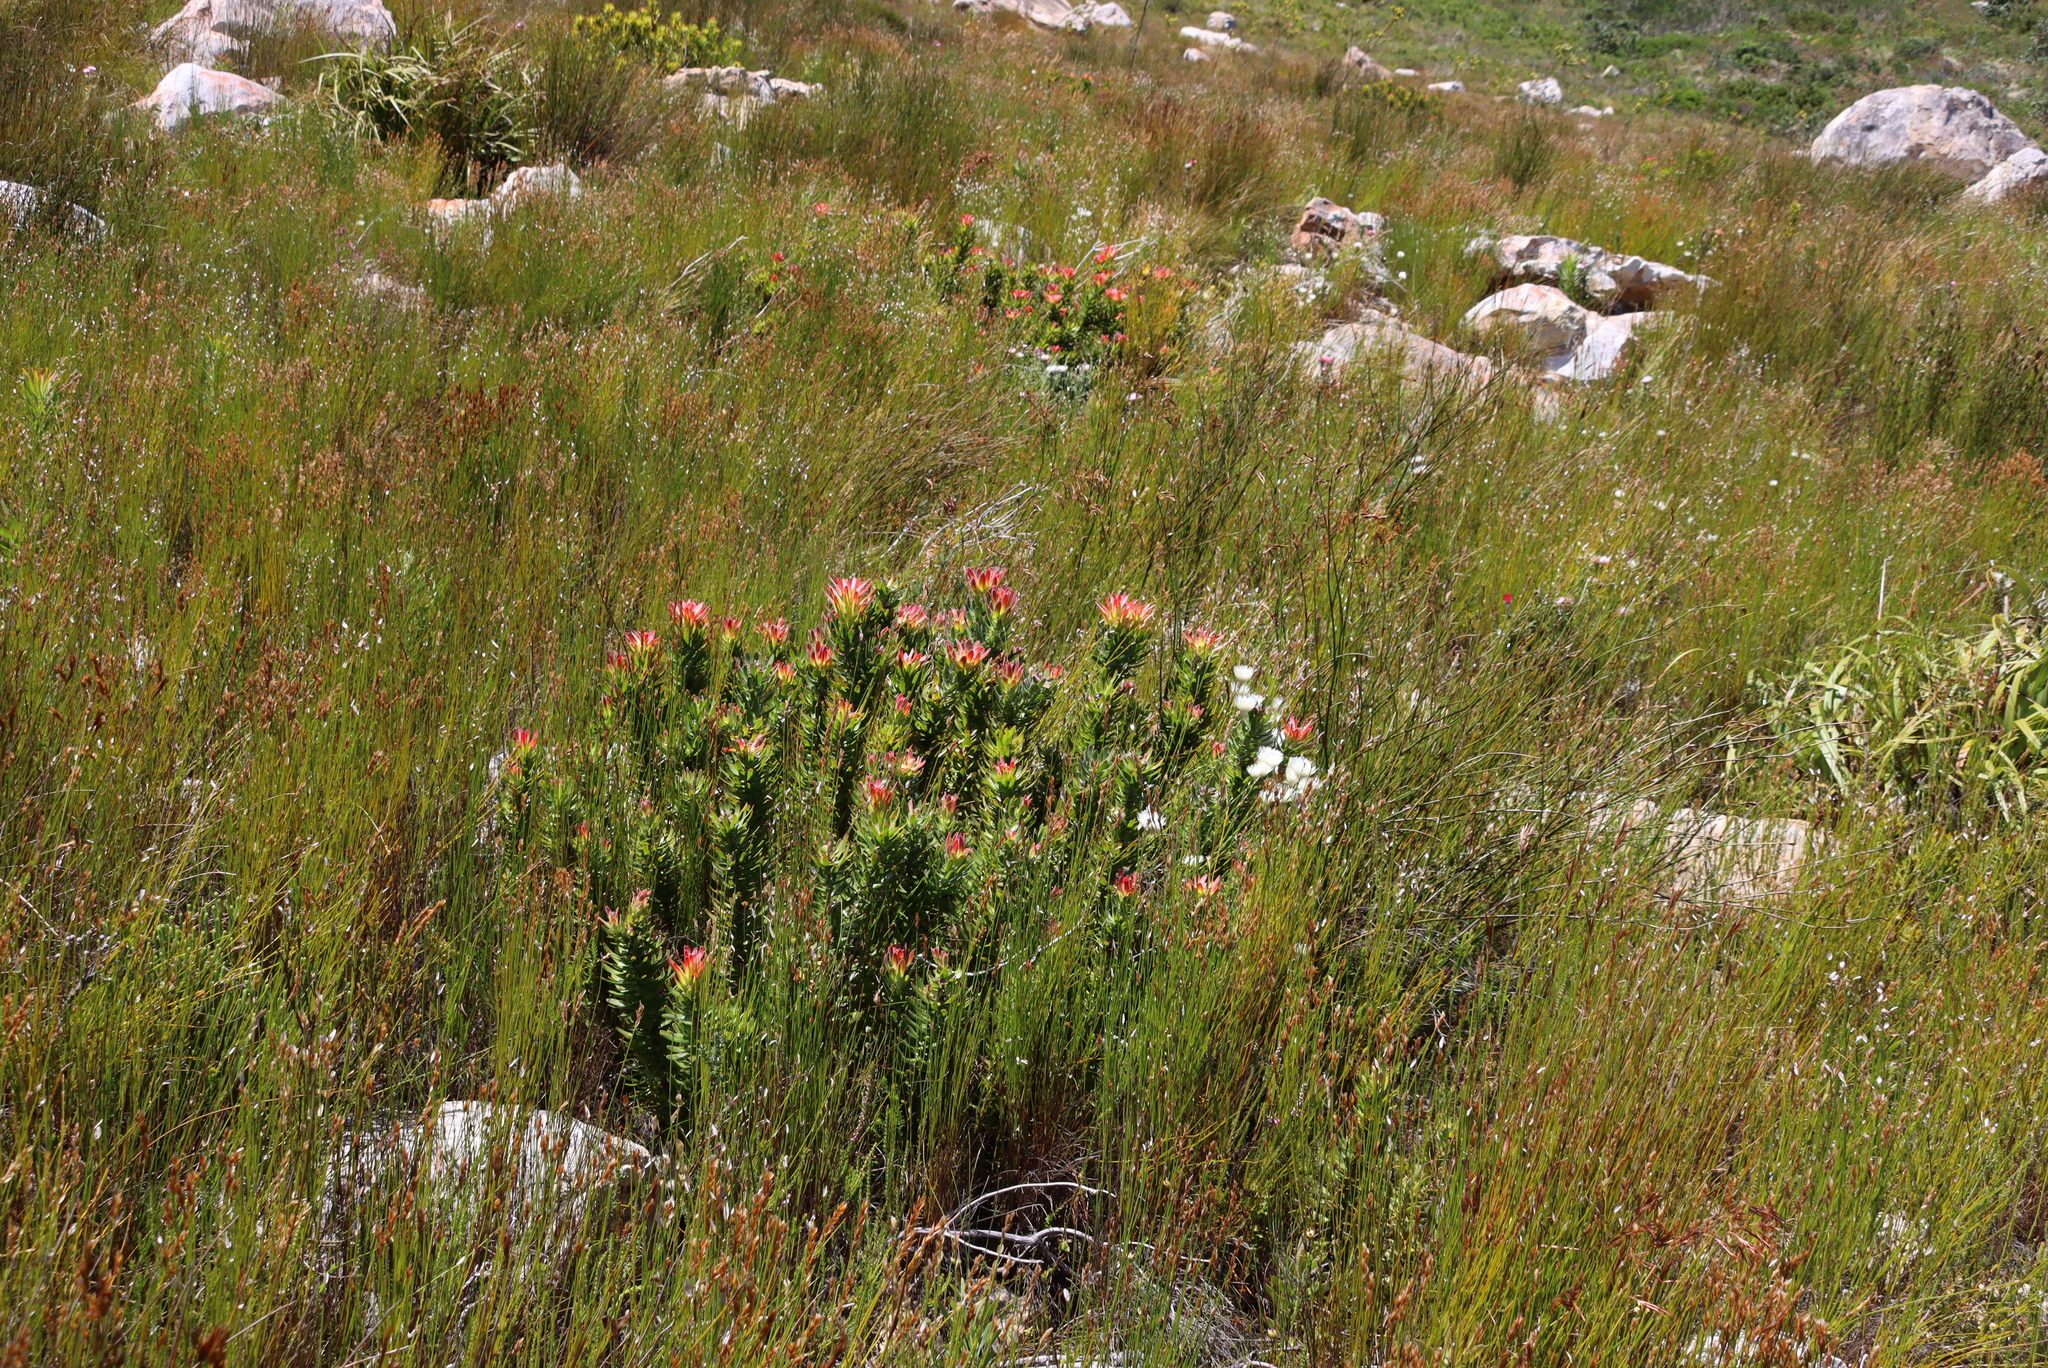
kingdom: Plantae
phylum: Tracheophyta
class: Magnoliopsida
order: Proteales
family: Proteaceae
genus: Mimetes
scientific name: Mimetes cucullatus
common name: Common pagoda
